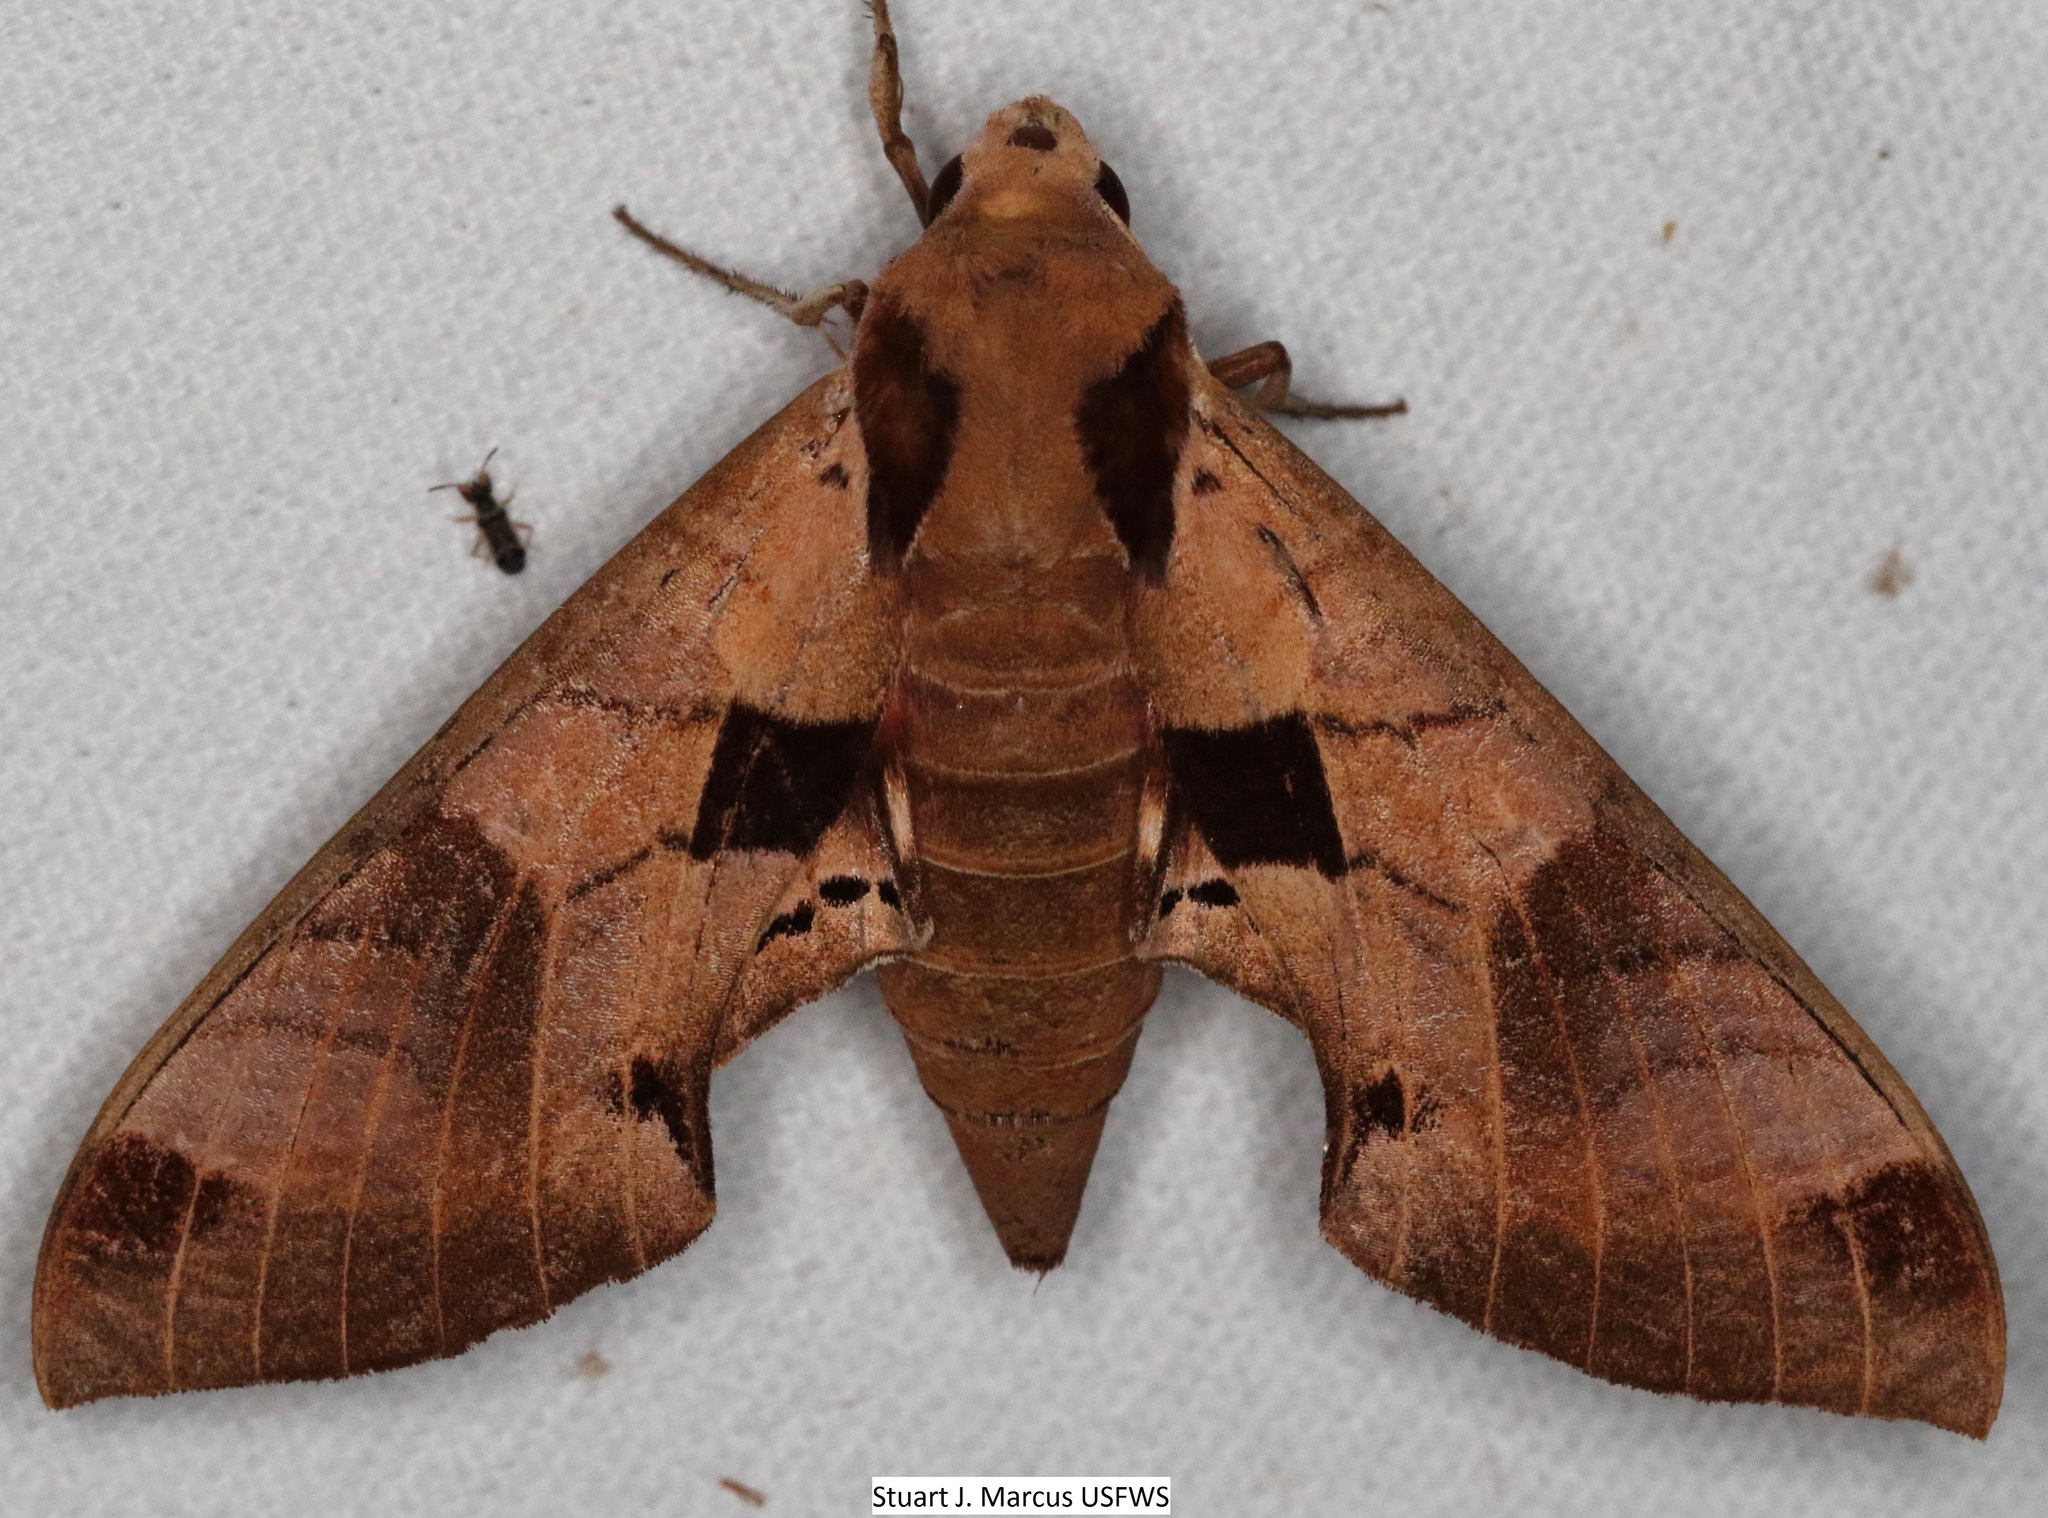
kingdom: Animalia
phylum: Arthropoda
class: Insecta
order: Lepidoptera
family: Sphingidae
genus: Eumorpha
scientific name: Eumorpha achemon
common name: Achemon sphinx
